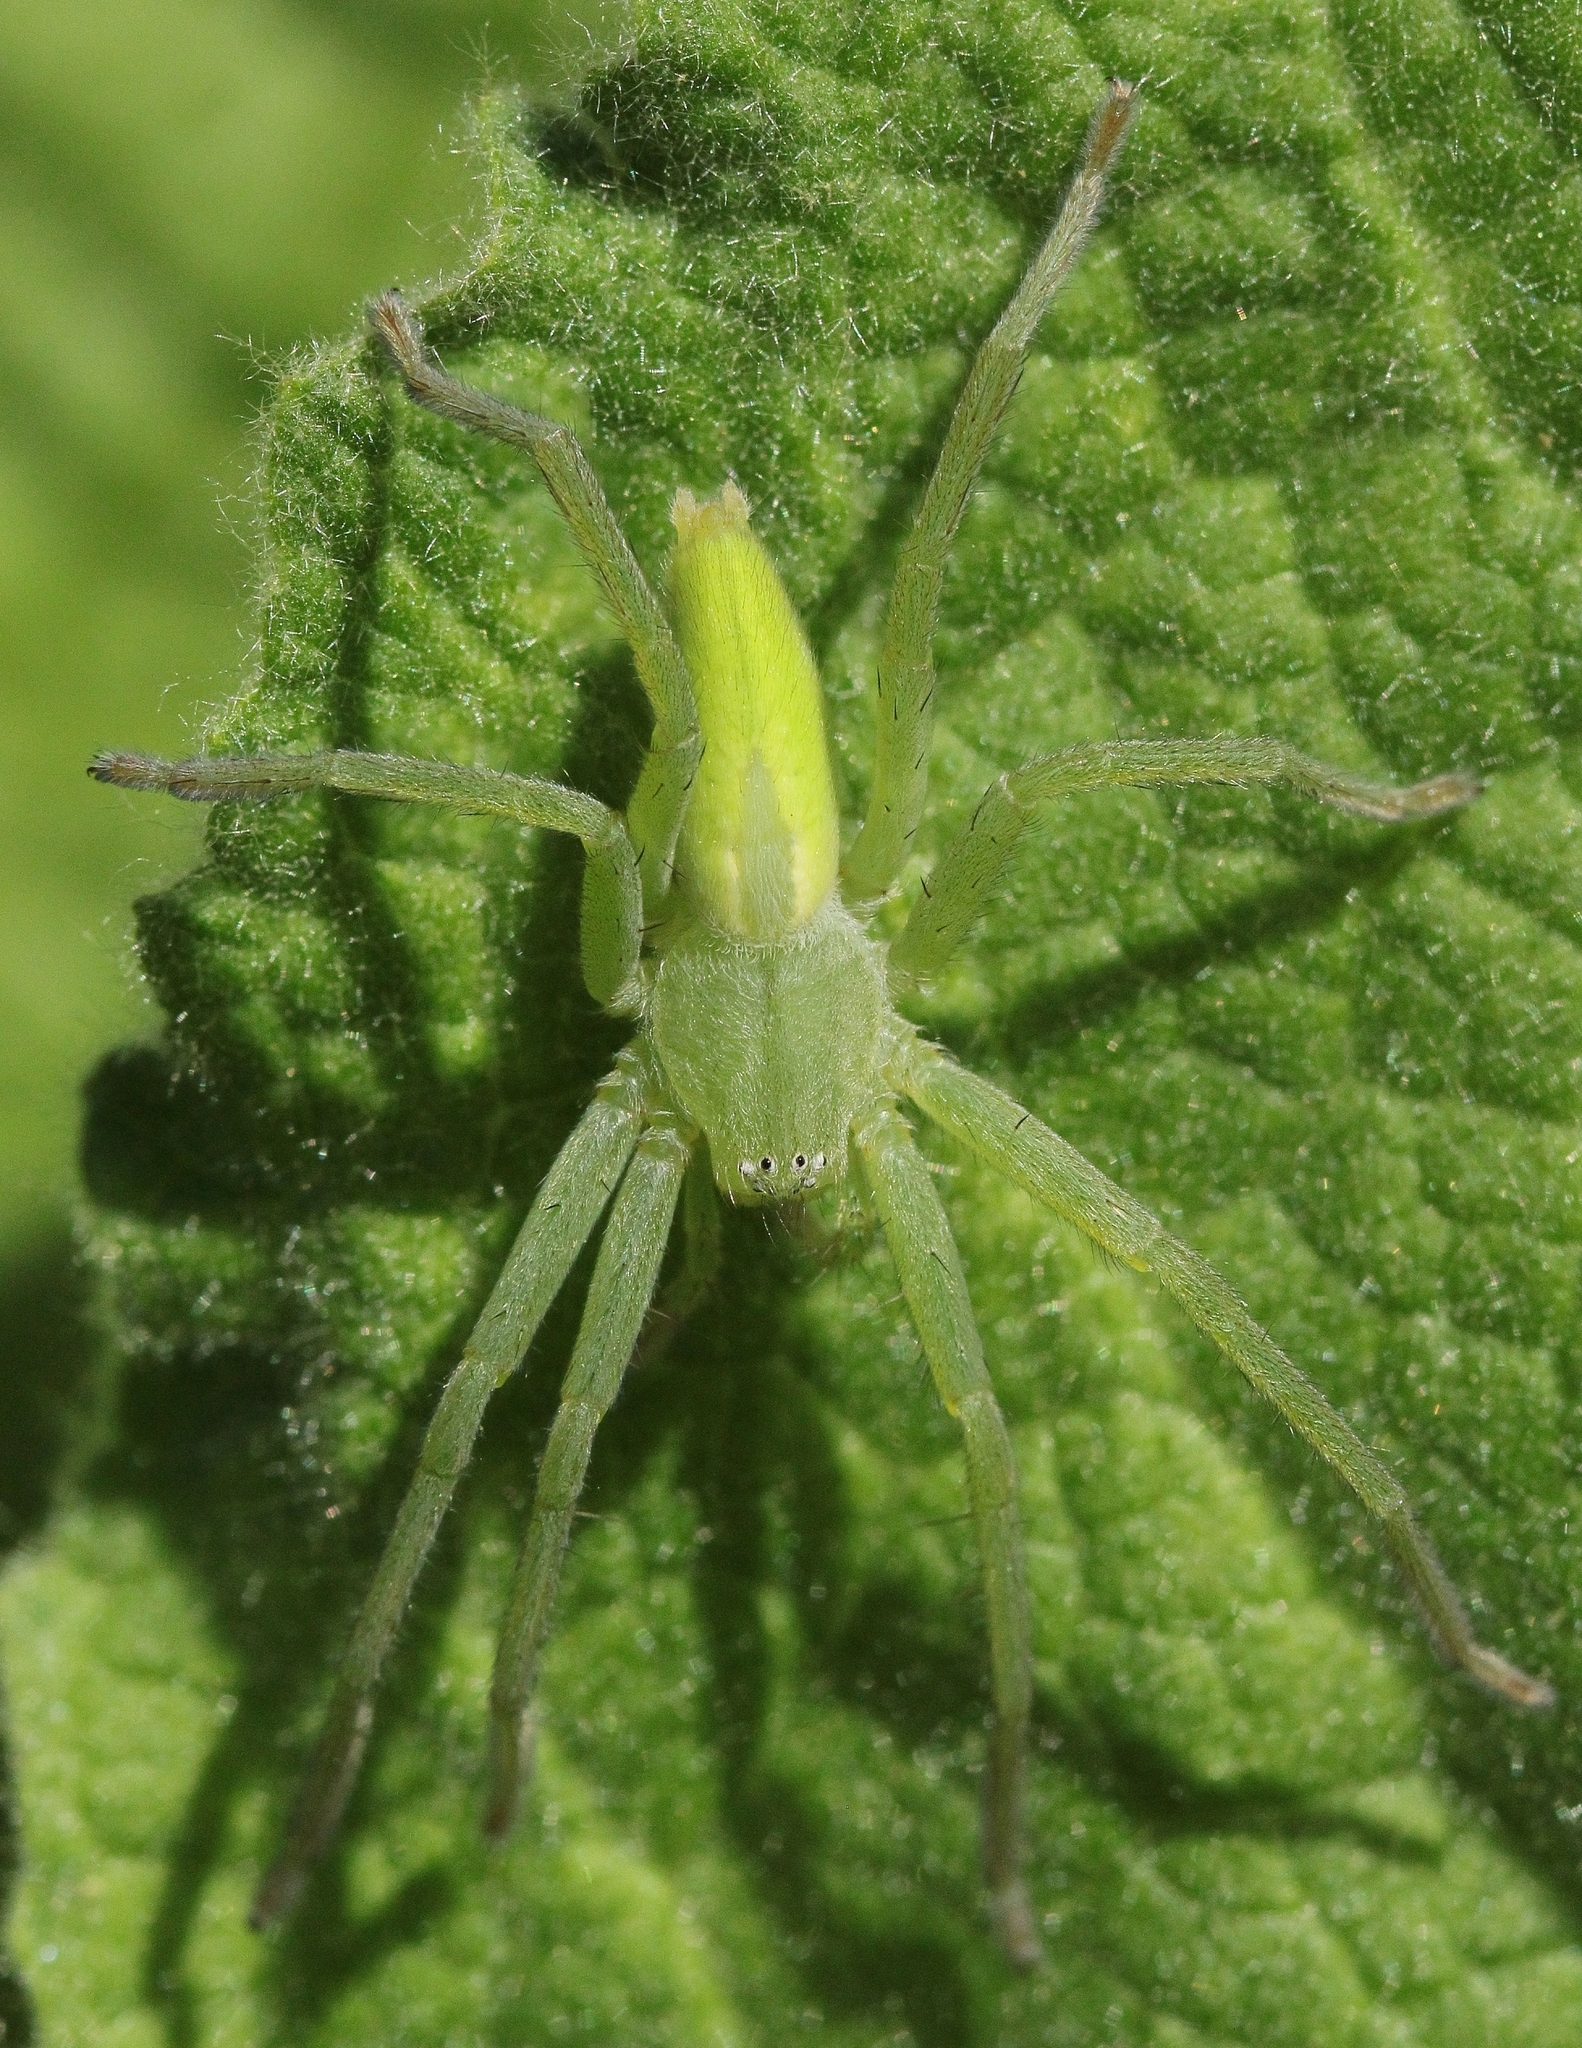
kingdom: Animalia
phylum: Arthropoda
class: Arachnida
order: Araneae
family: Sparassidae
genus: Micrommata
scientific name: Micrommata virescens
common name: Green spider
